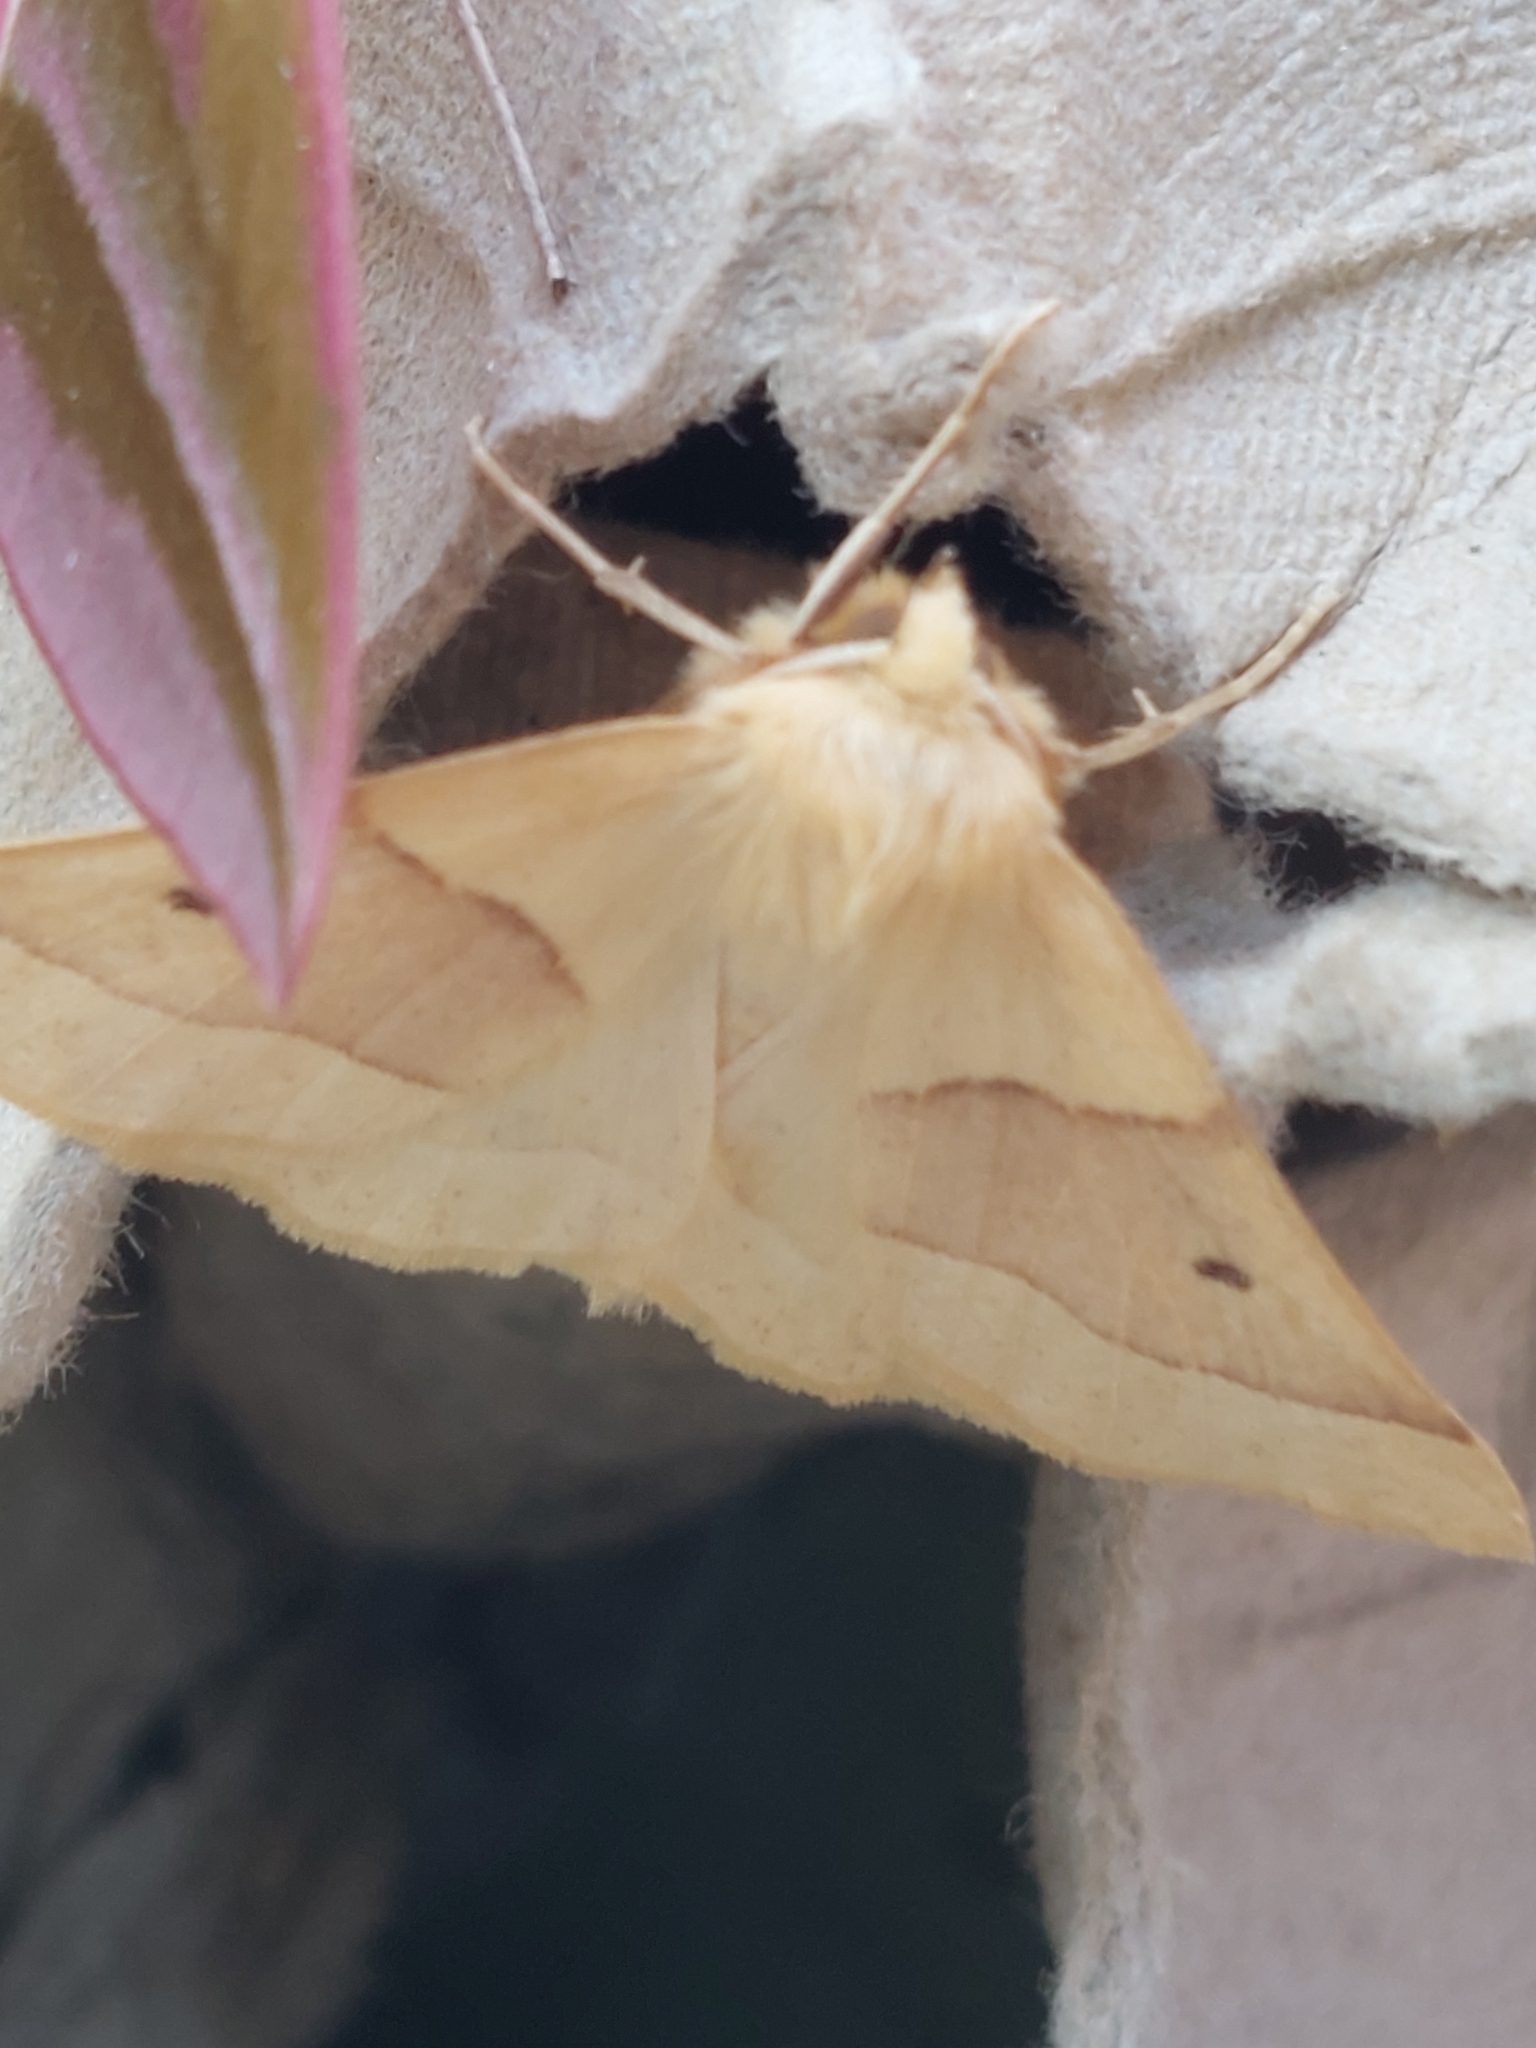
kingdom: Animalia
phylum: Arthropoda
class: Insecta
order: Lepidoptera
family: Geometridae
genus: Crocallis
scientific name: Crocallis elinguaria
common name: Scalloped oak
